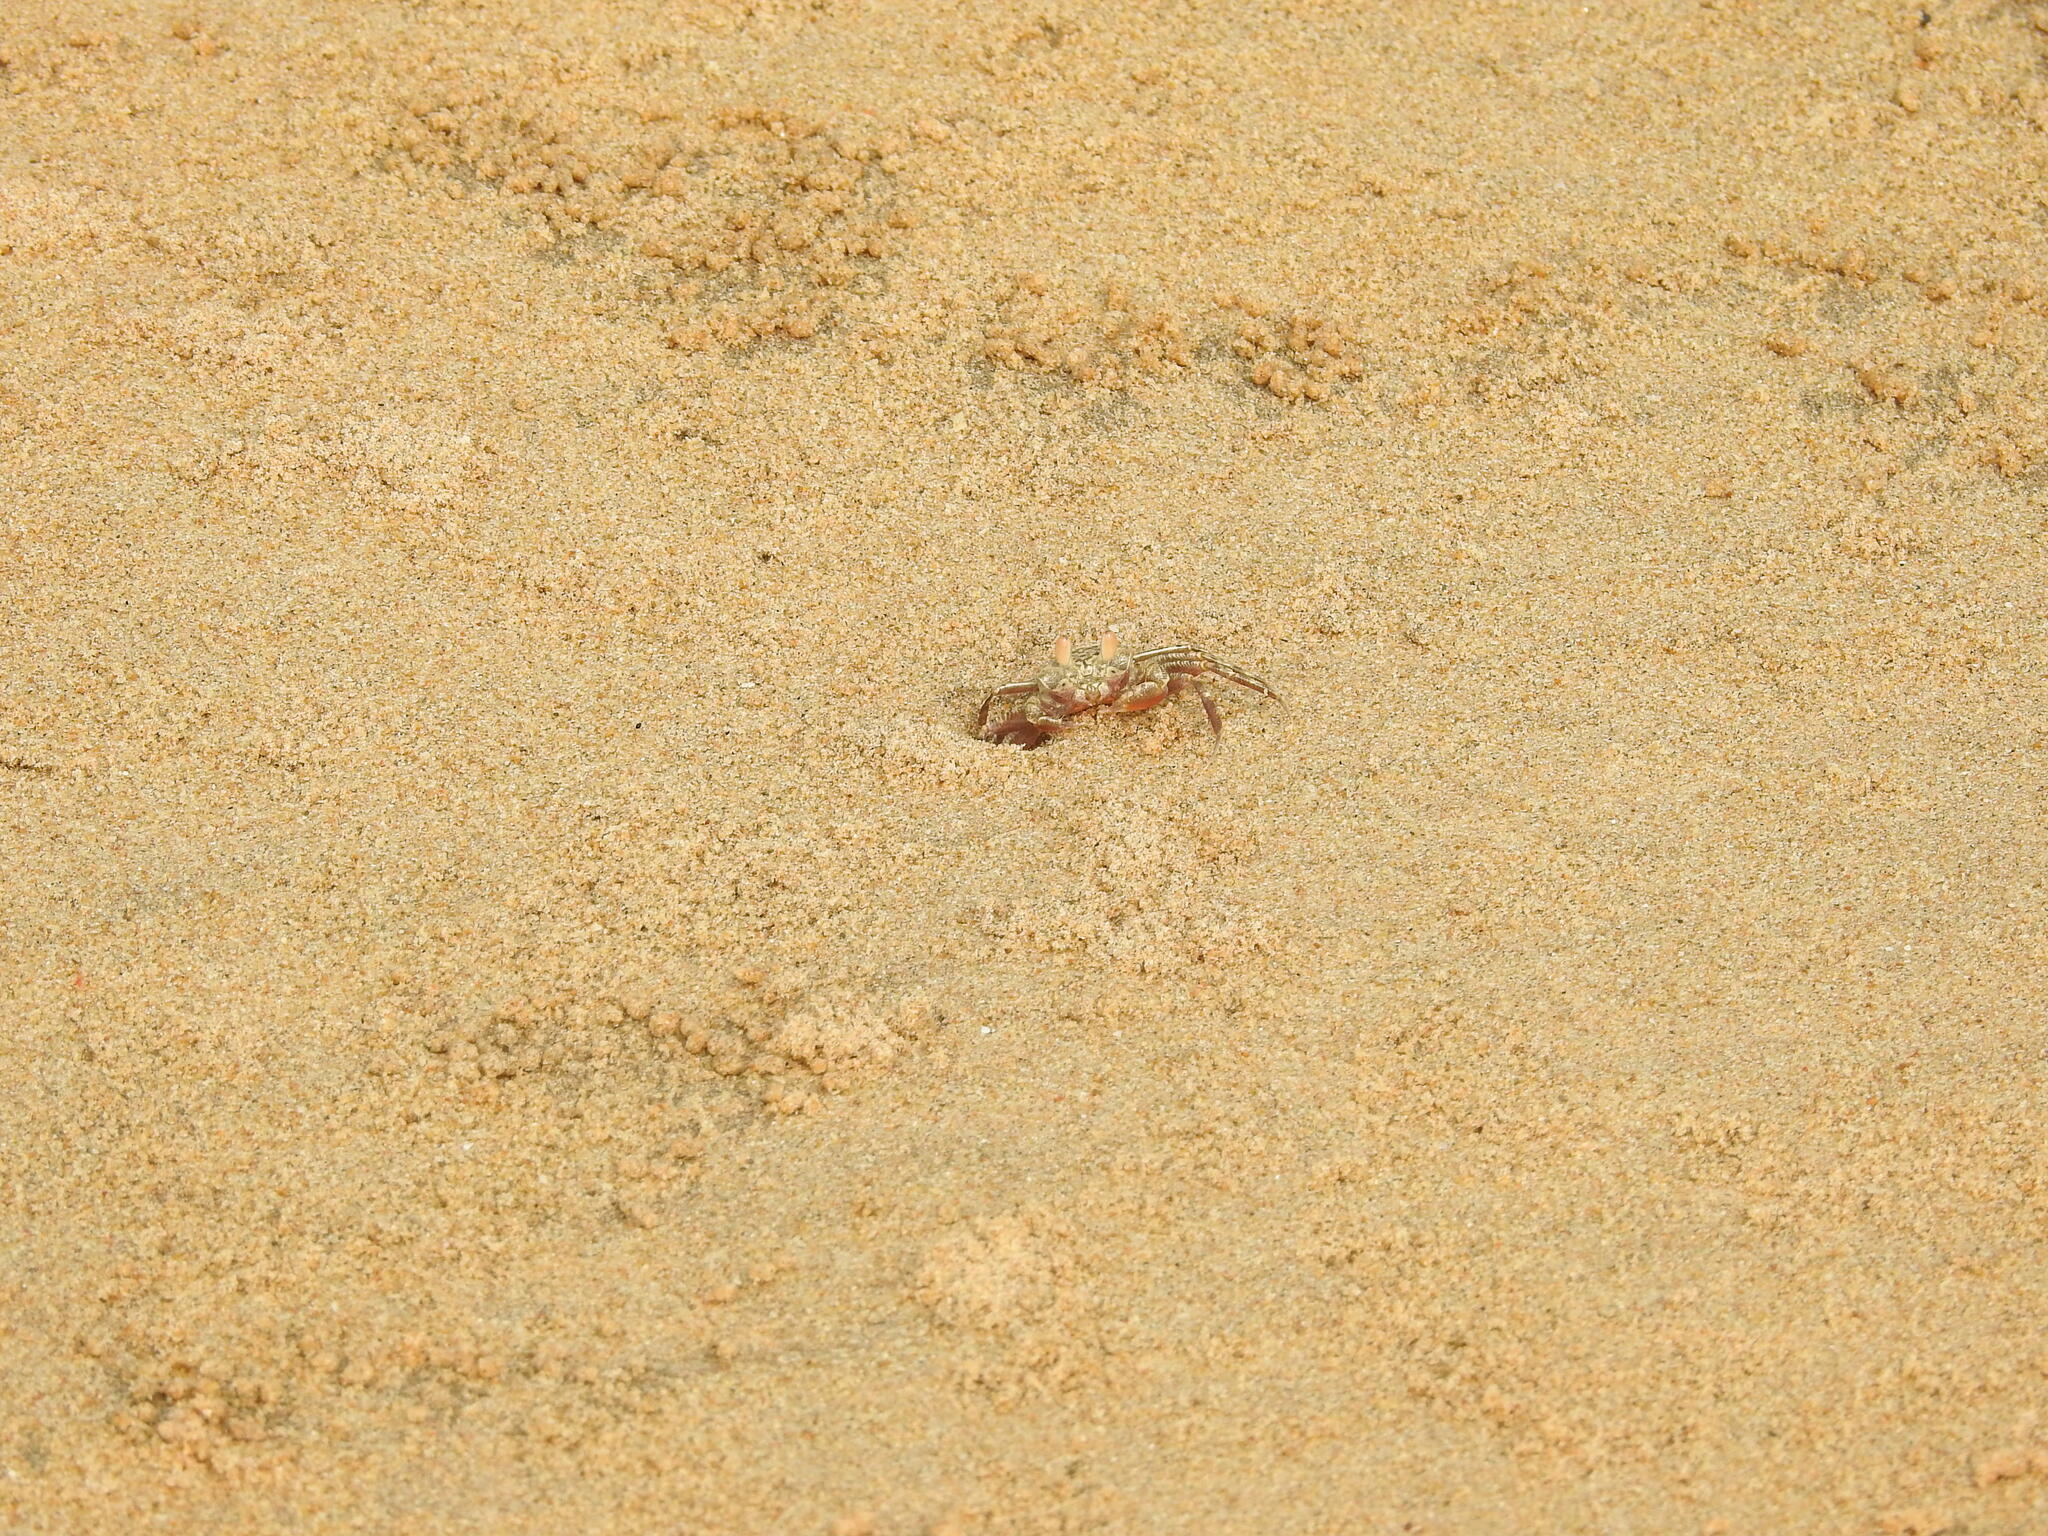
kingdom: Animalia
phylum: Arthropoda
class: Malacostraca
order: Decapoda
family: Ocypodidae
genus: Ocypode
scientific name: Ocypode macrocera
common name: Red ghost crab
